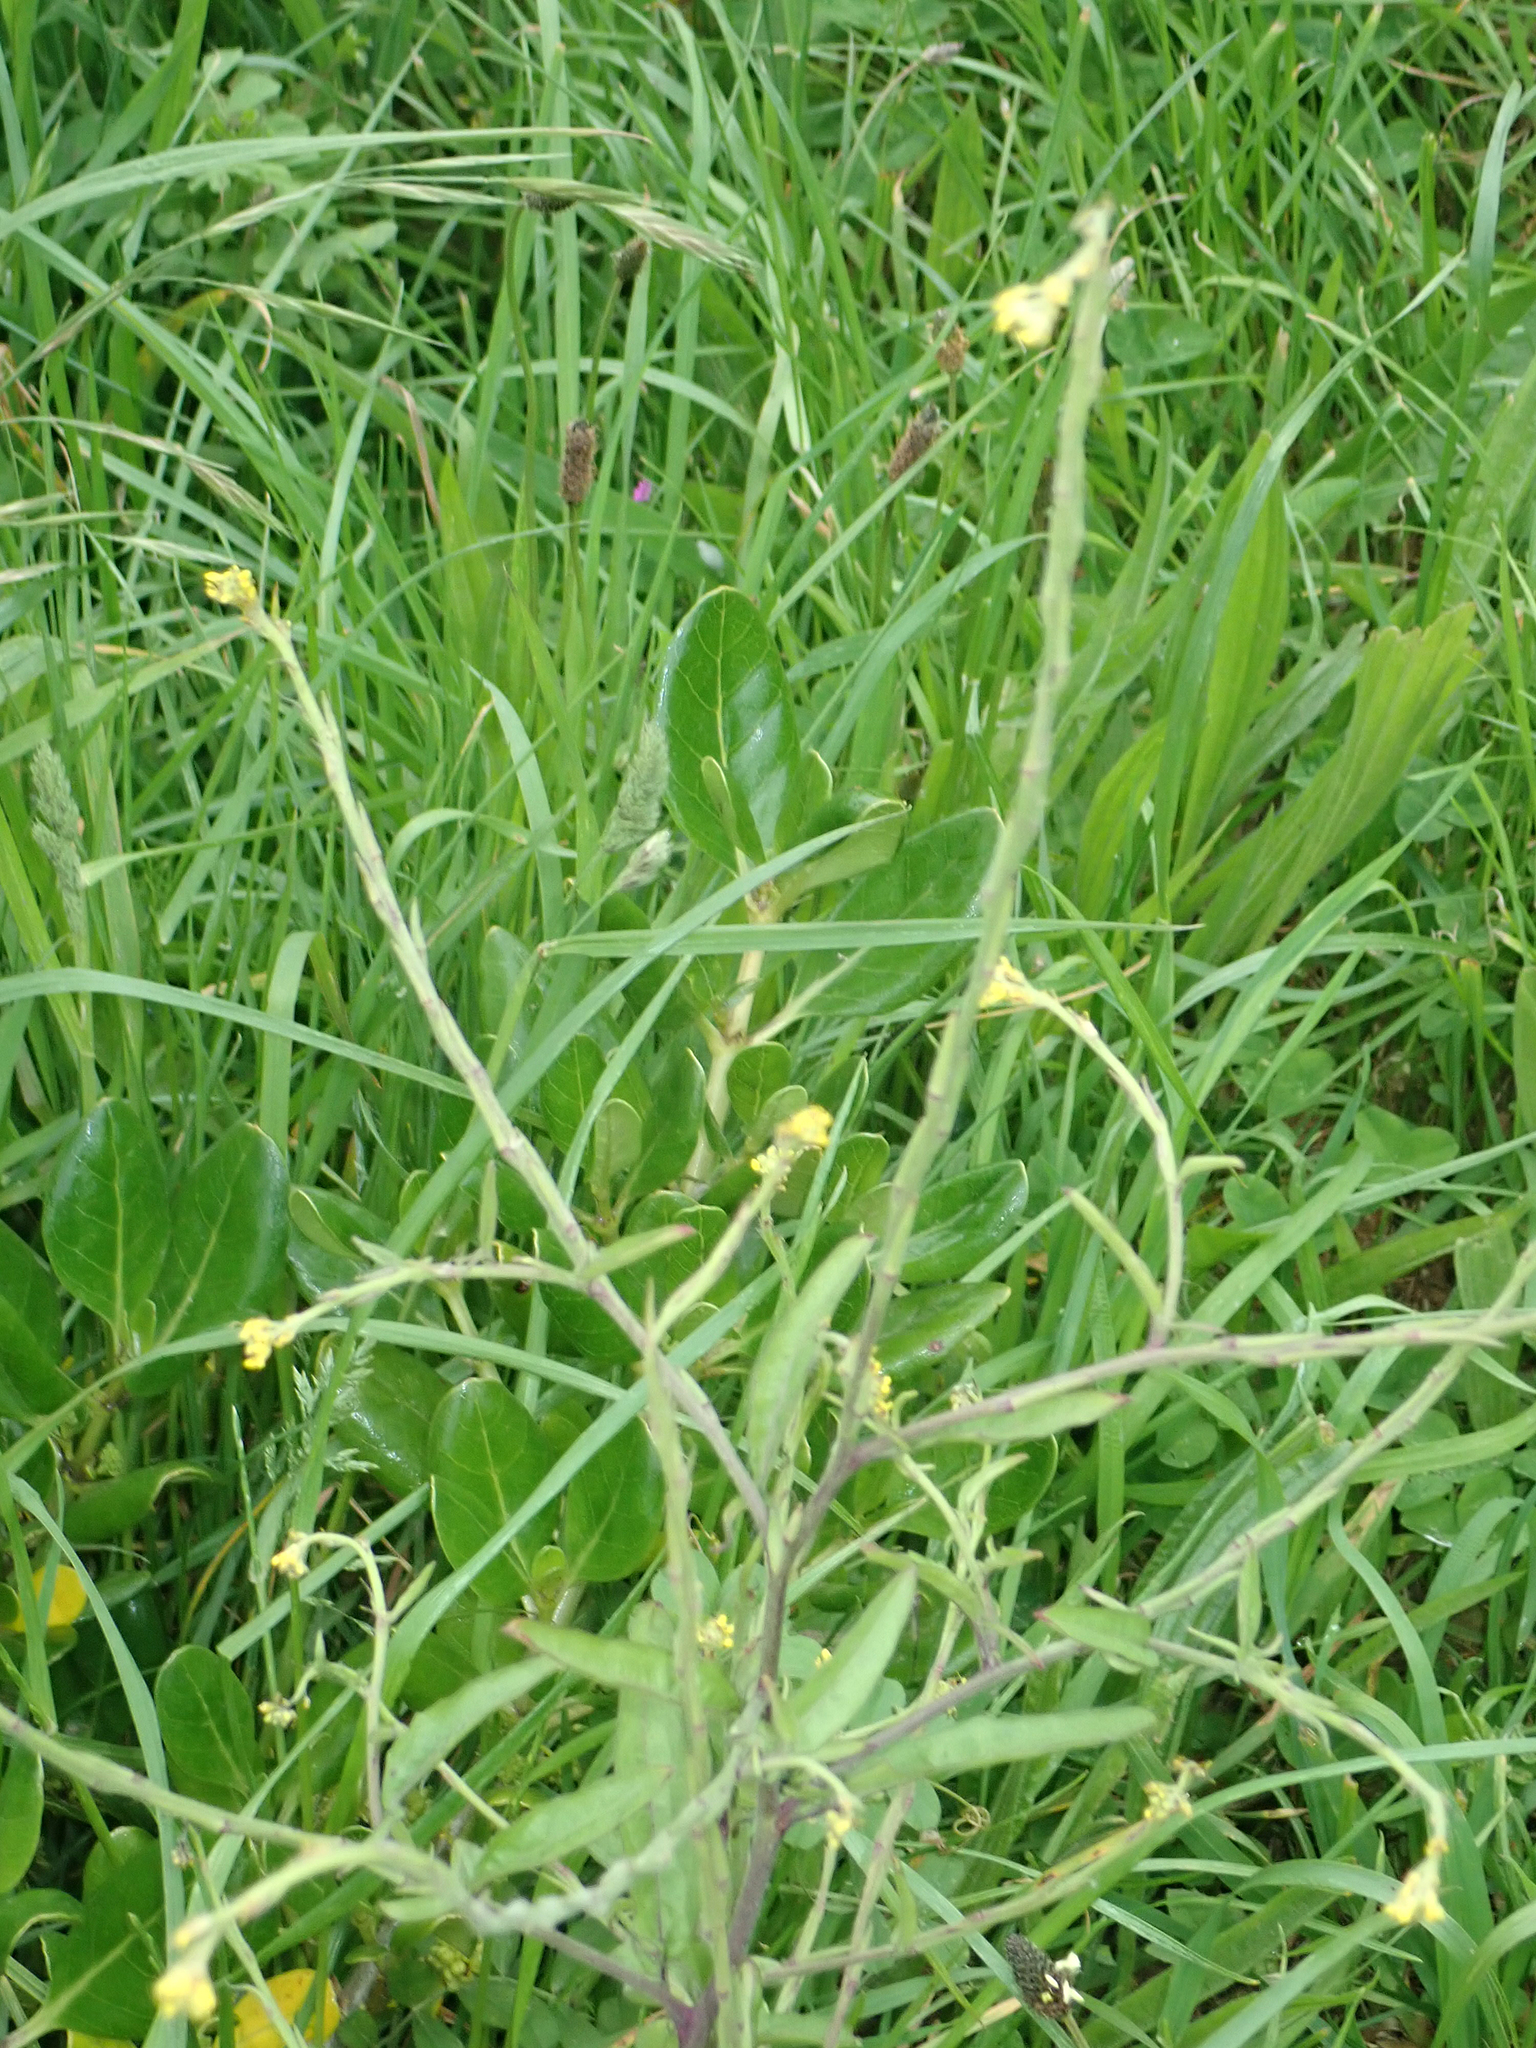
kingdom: Plantae
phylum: Tracheophyta
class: Magnoliopsida
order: Brassicales
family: Brassicaceae
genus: Sisymbrium
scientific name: Sisymbrium orientale
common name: Eastern rocket
